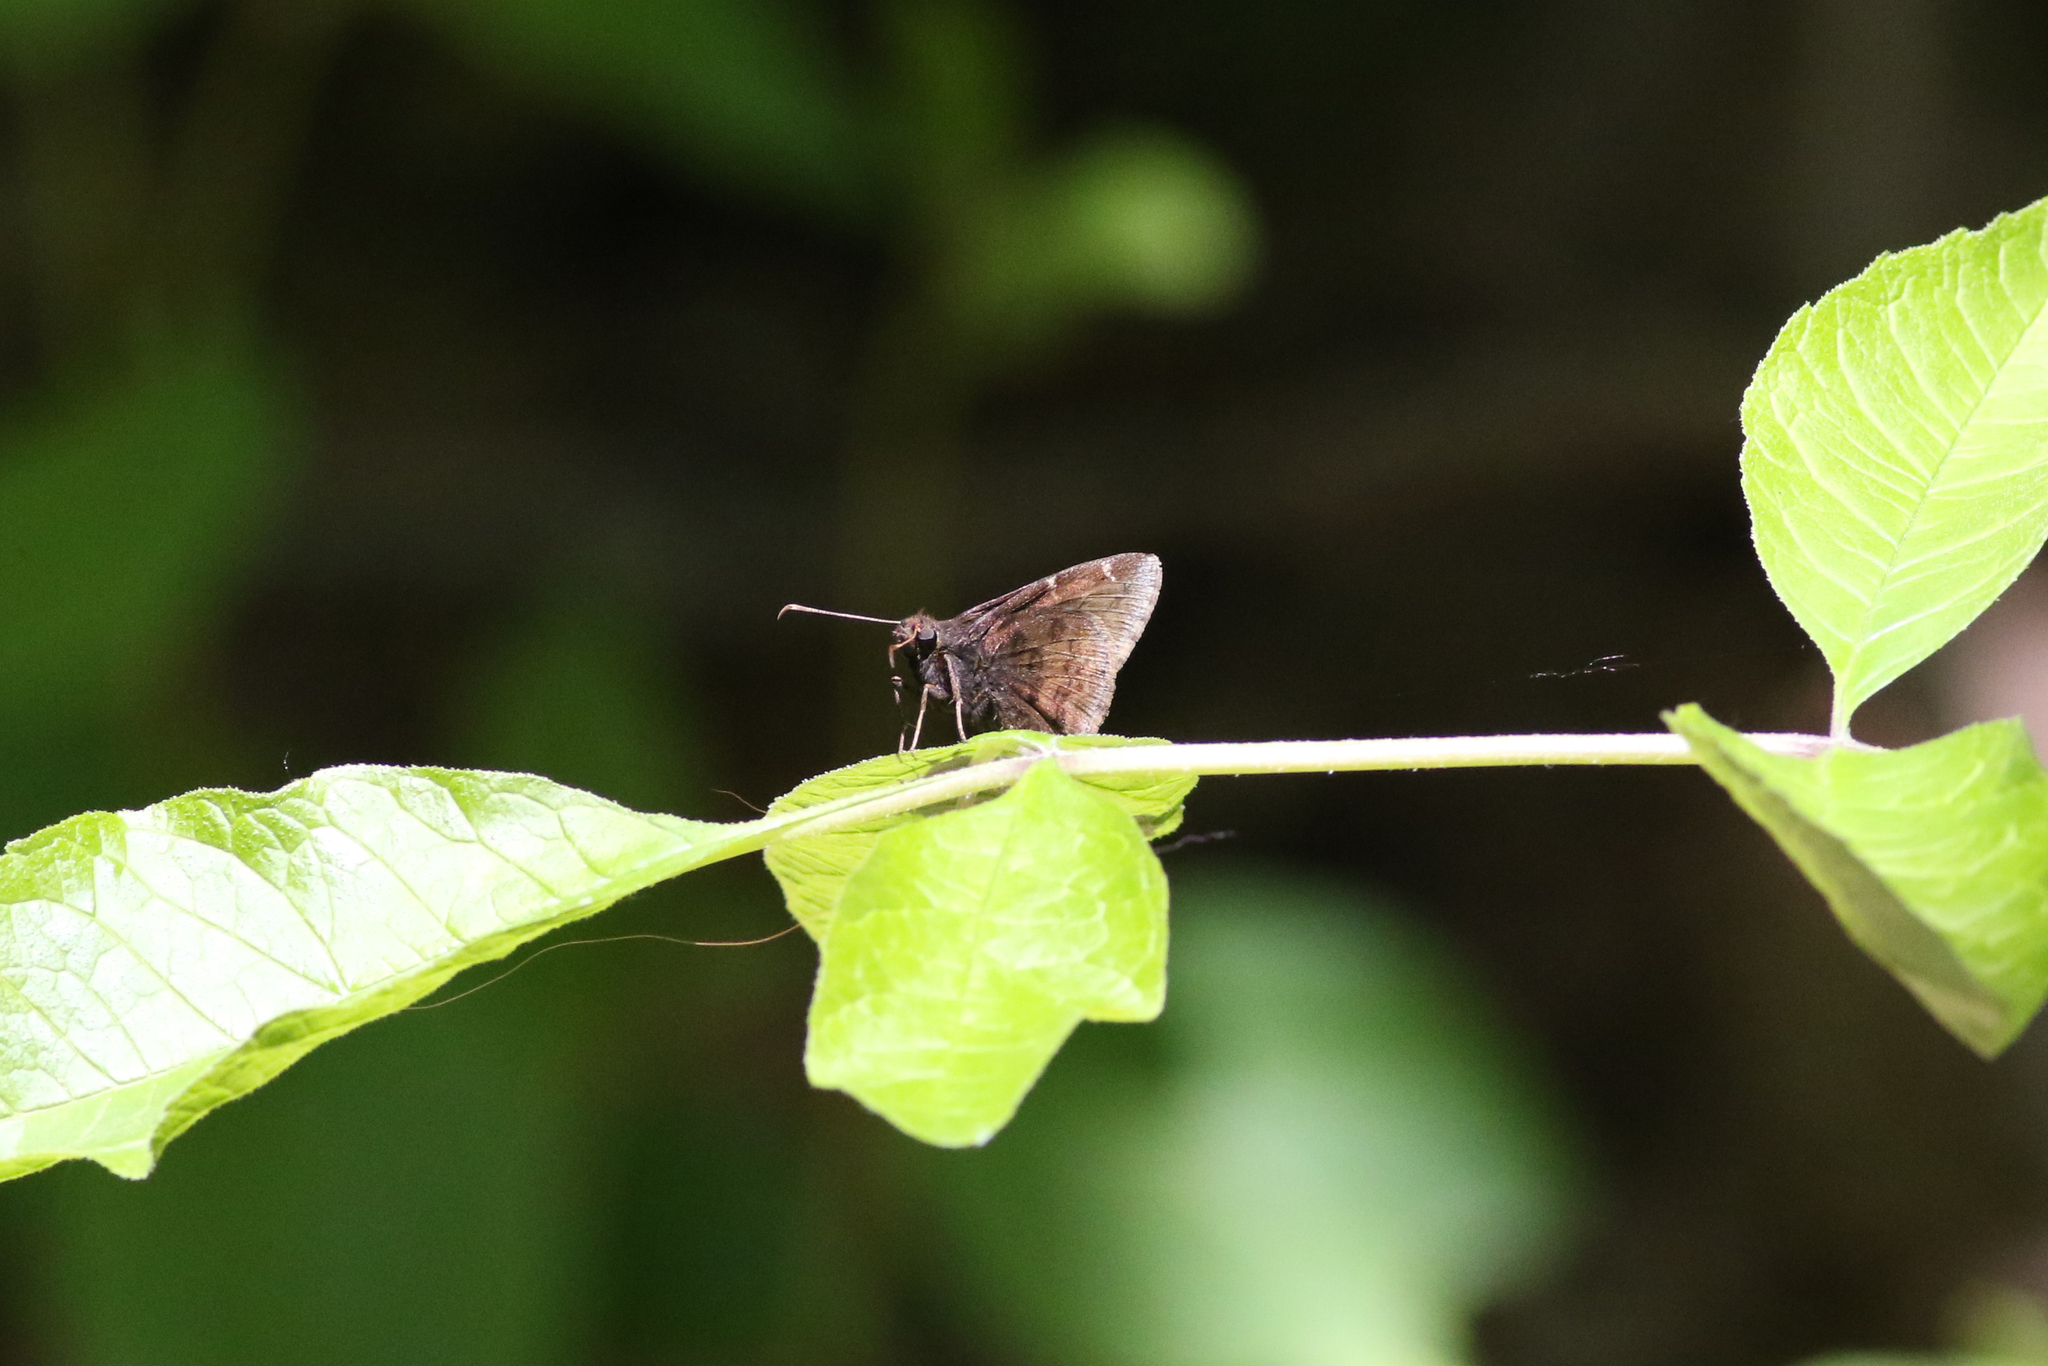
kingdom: Animalia
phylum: Arthropoda
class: Insecta
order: Lepidoptera
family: Hesperiidae
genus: Thorybes
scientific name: Thorybes pylades
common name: Northern cloudywing
